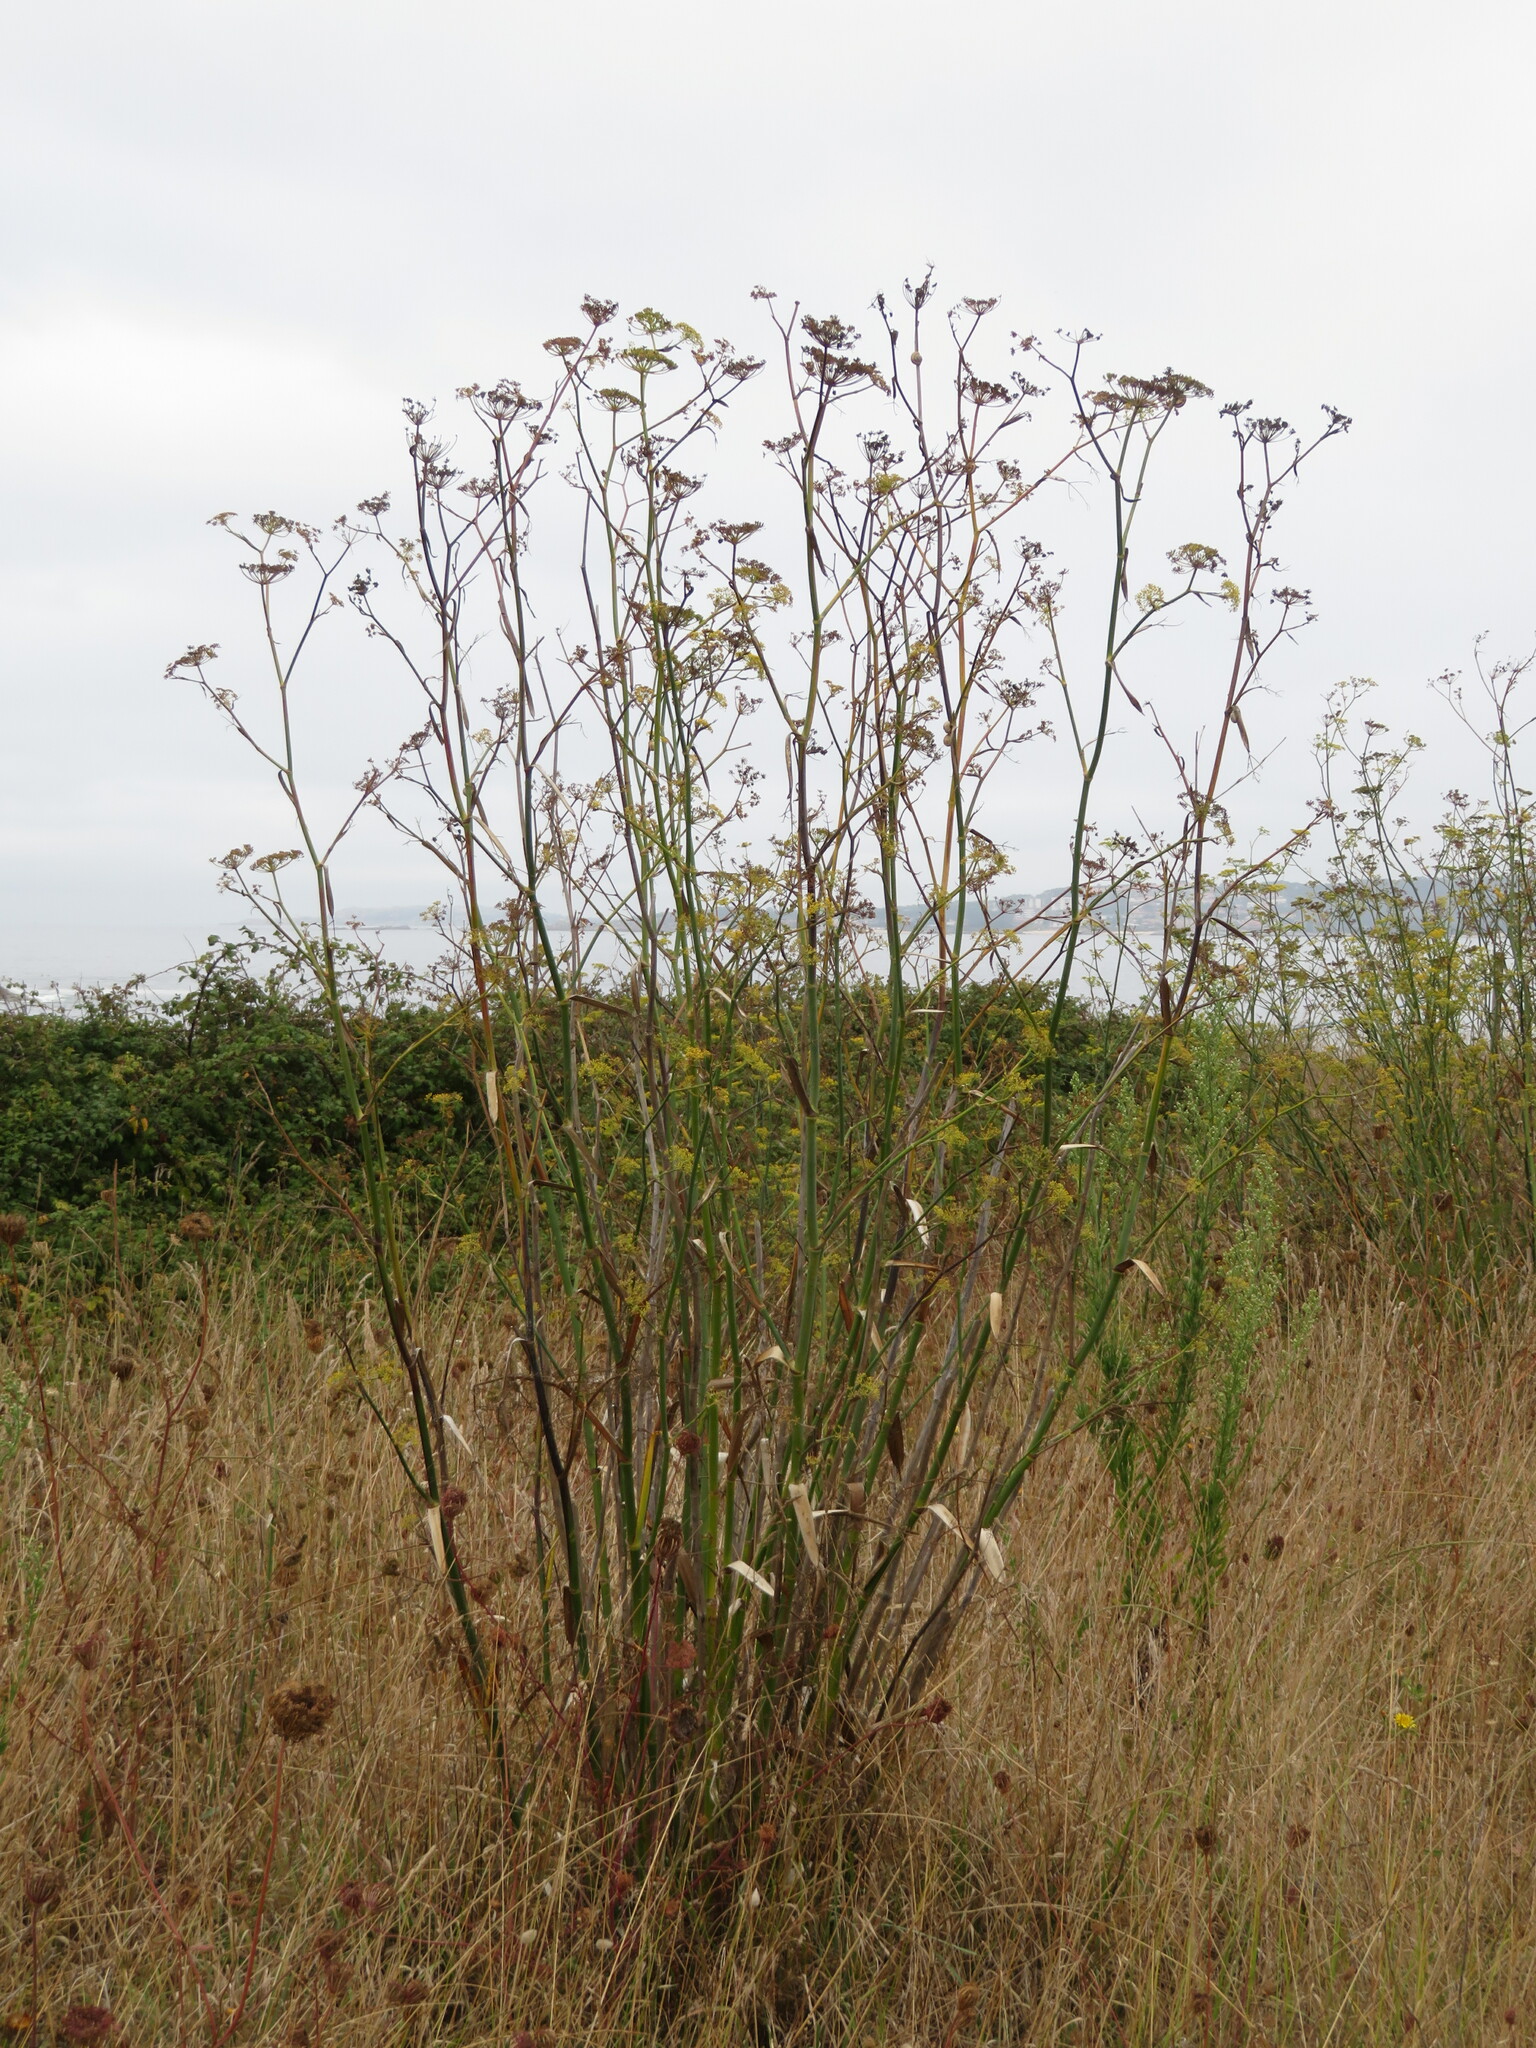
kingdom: Plantae
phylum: Tracheophyta
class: Magnoliopsida
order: Apiales
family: Apiaceae
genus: Foeniculum
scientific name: Foeniculum vulgare
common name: Fennel
